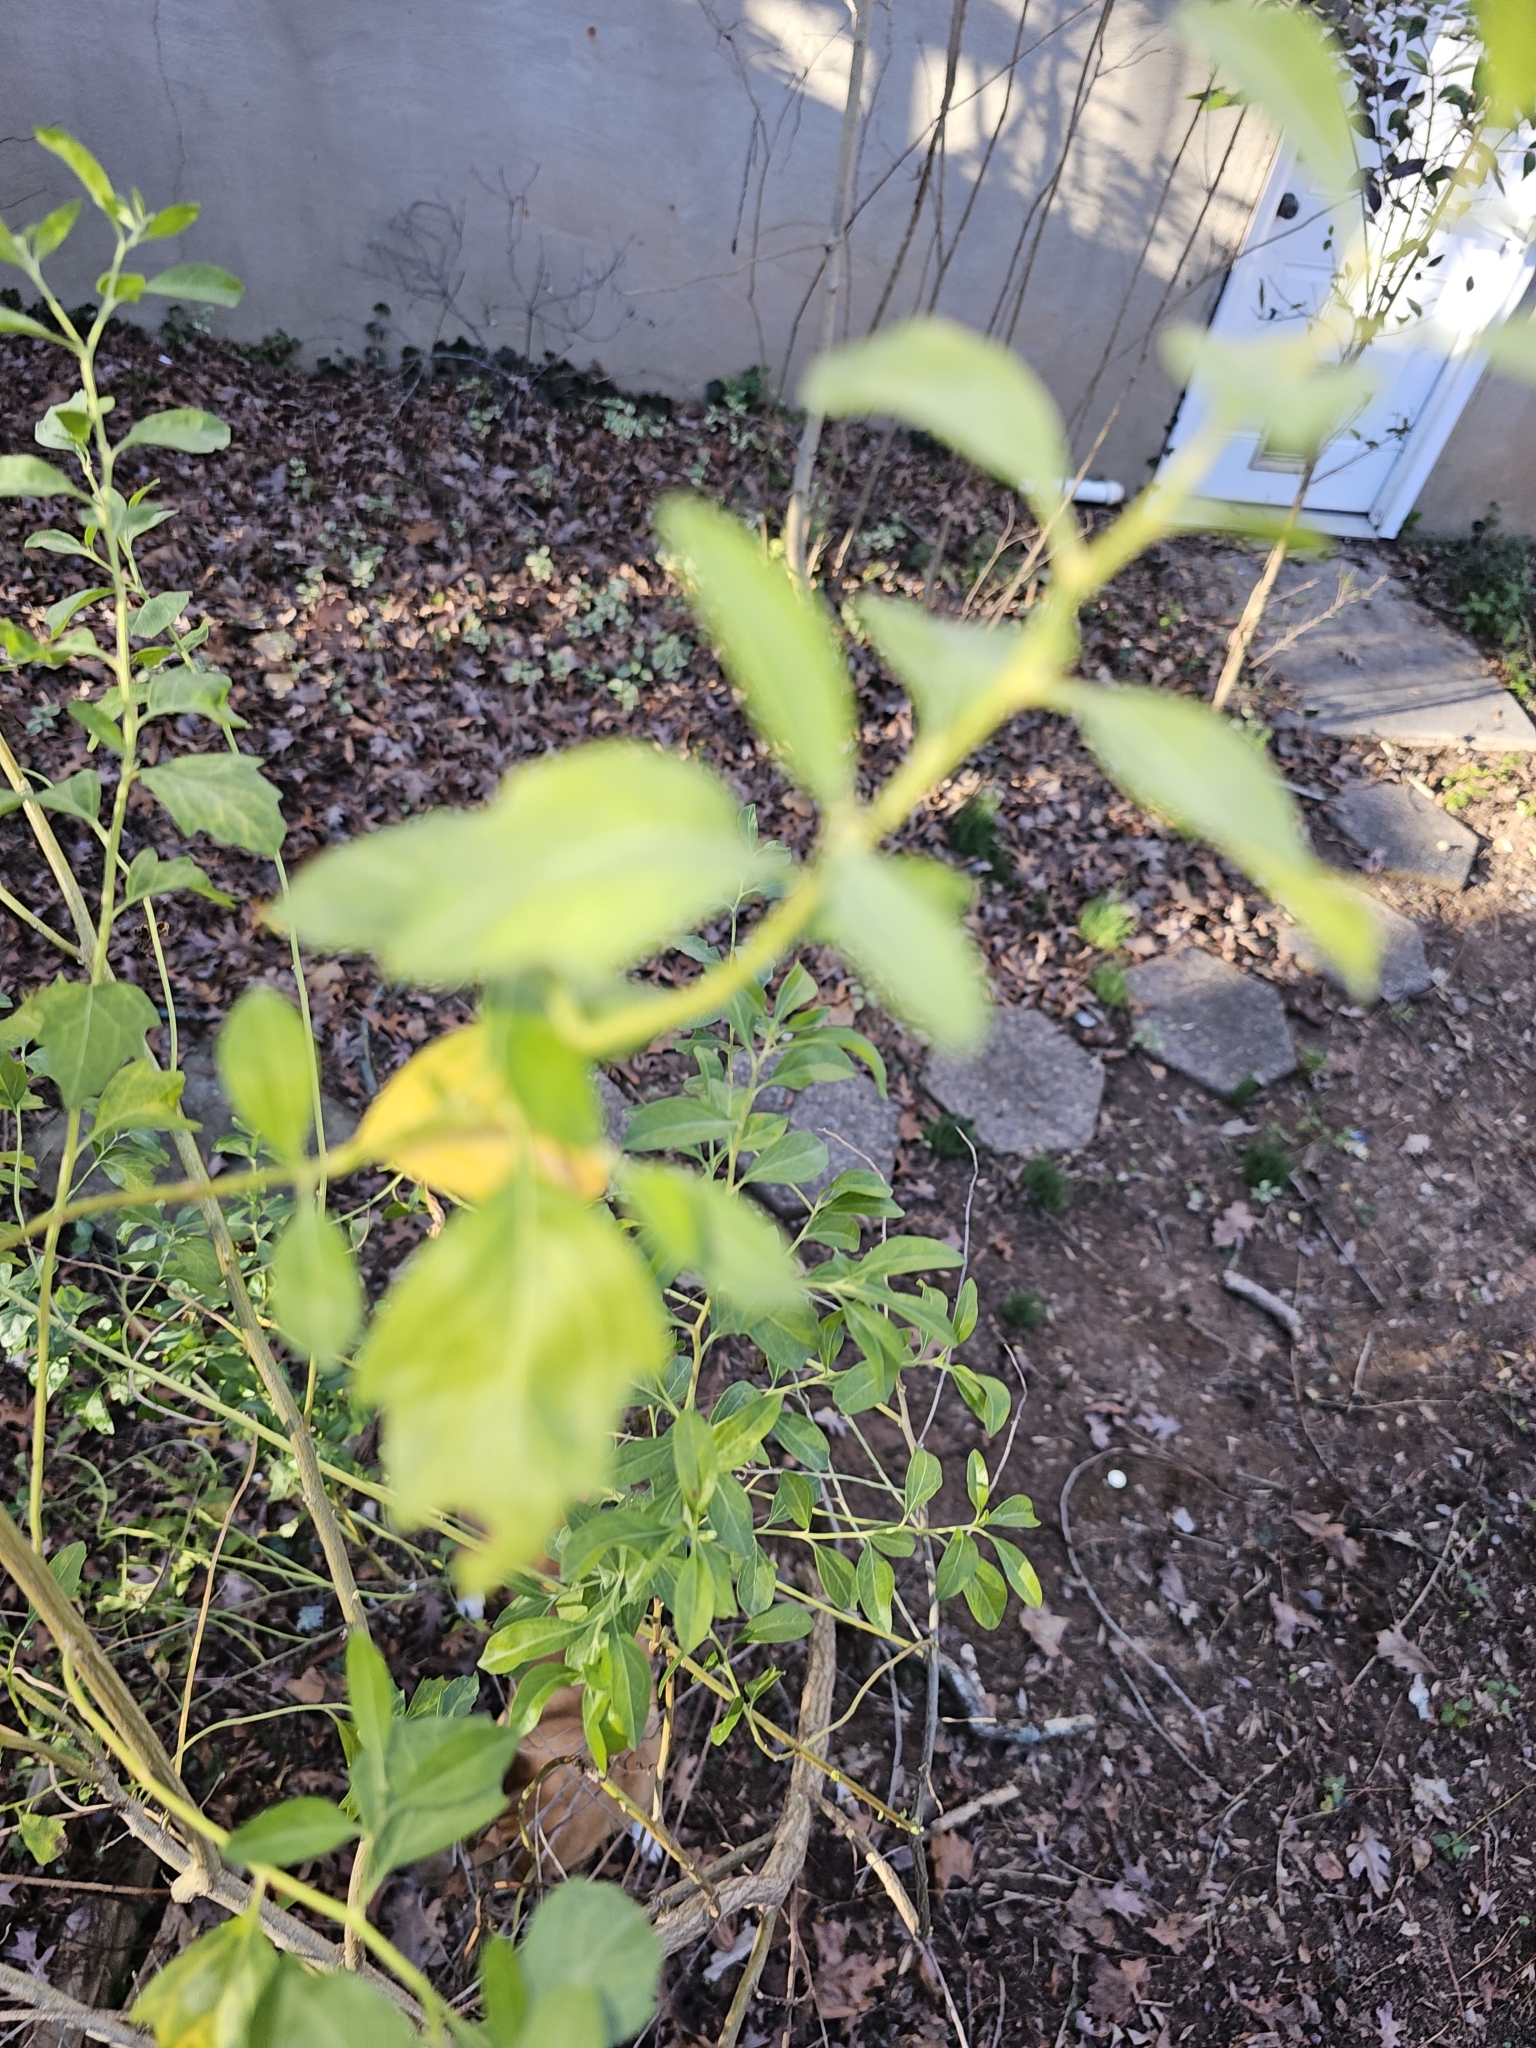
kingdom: Plantae
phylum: Tracheophyta
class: Magnoliopsida
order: Asterales
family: Asteraceae
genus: Baccharis
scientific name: Baccharis halimifolia
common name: Eastern baccharis
